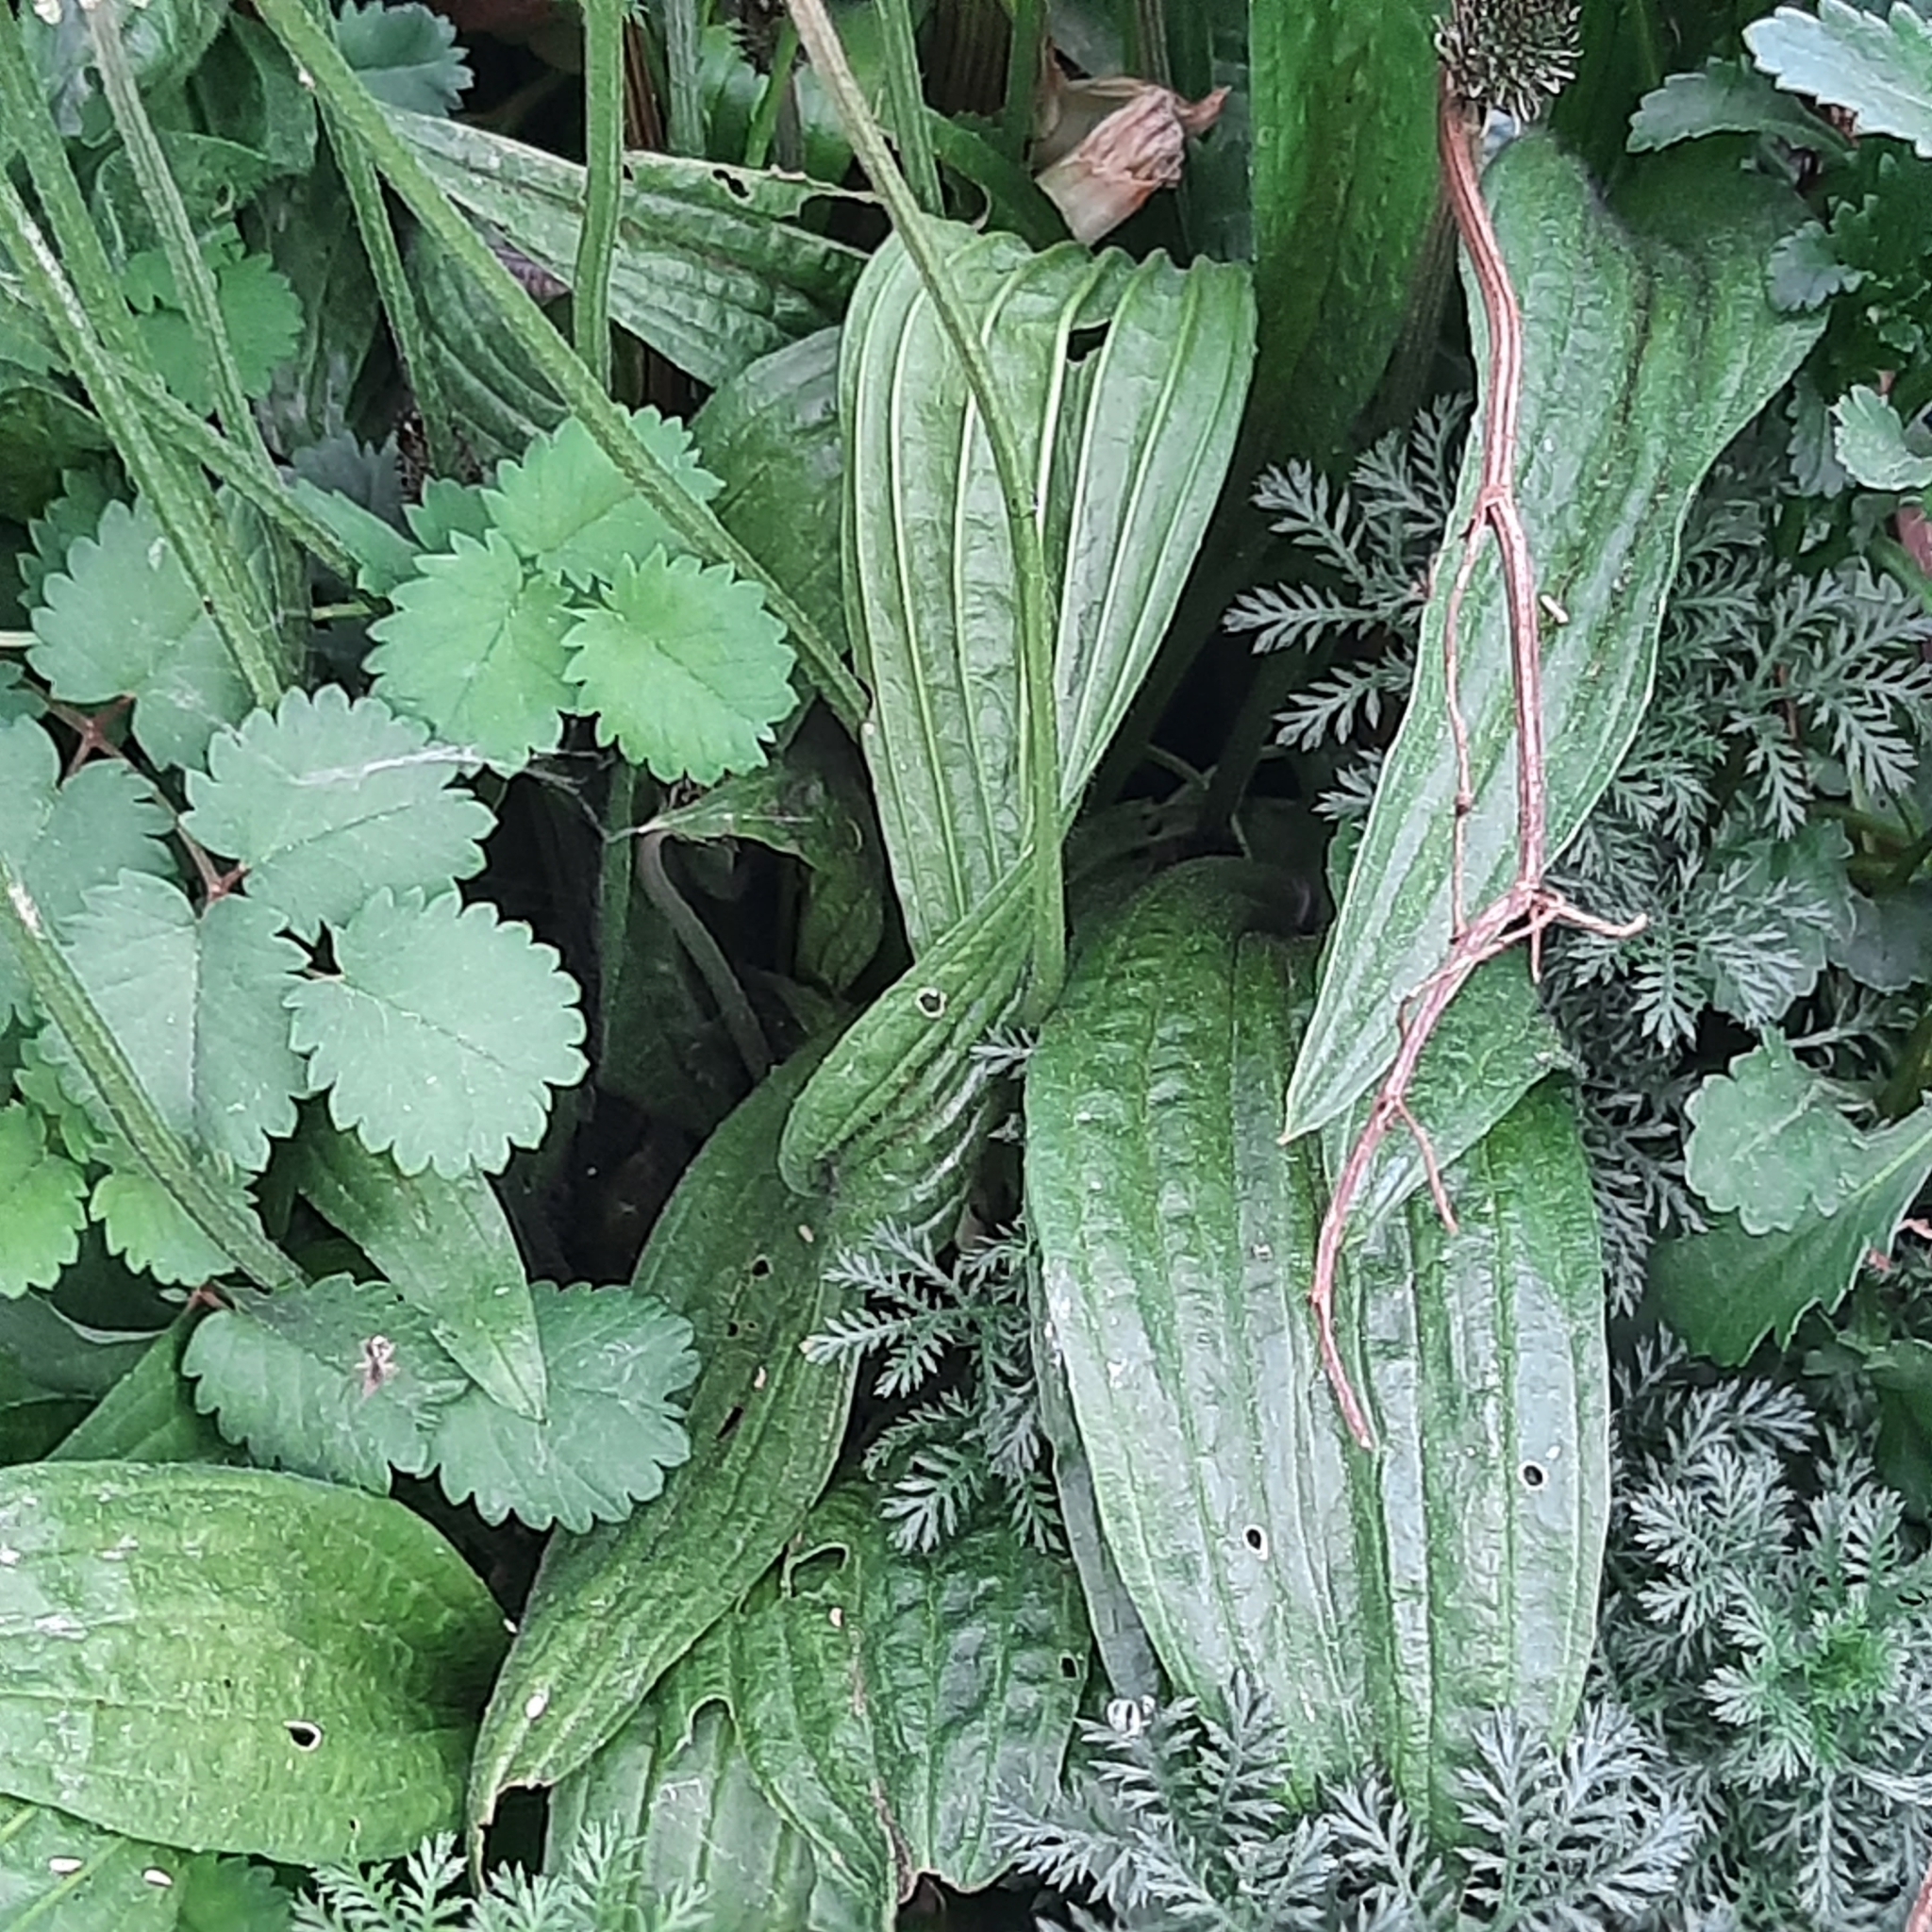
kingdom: Plantae
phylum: Tracheophyta
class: Magnoliopsida
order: Lamiales
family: Plantaginaceae
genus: Plantago
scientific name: Plantago lanceolata
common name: Ribwort plantain
